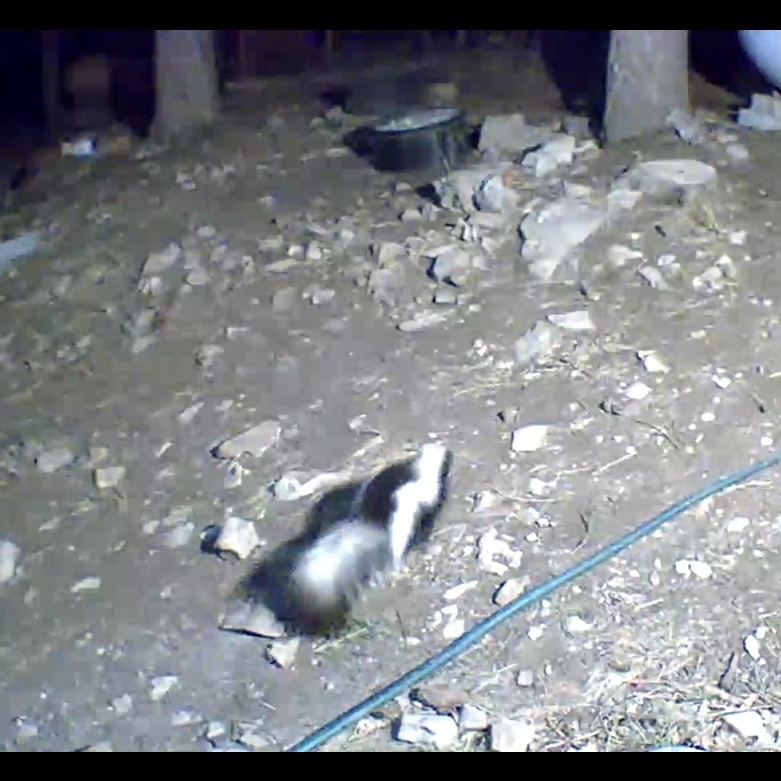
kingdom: Animalia
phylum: Chordata
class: Mammalia
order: Carnivora
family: Mephitidae
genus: Mephitis
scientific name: Mephitis mephitis
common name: Striped skunk
